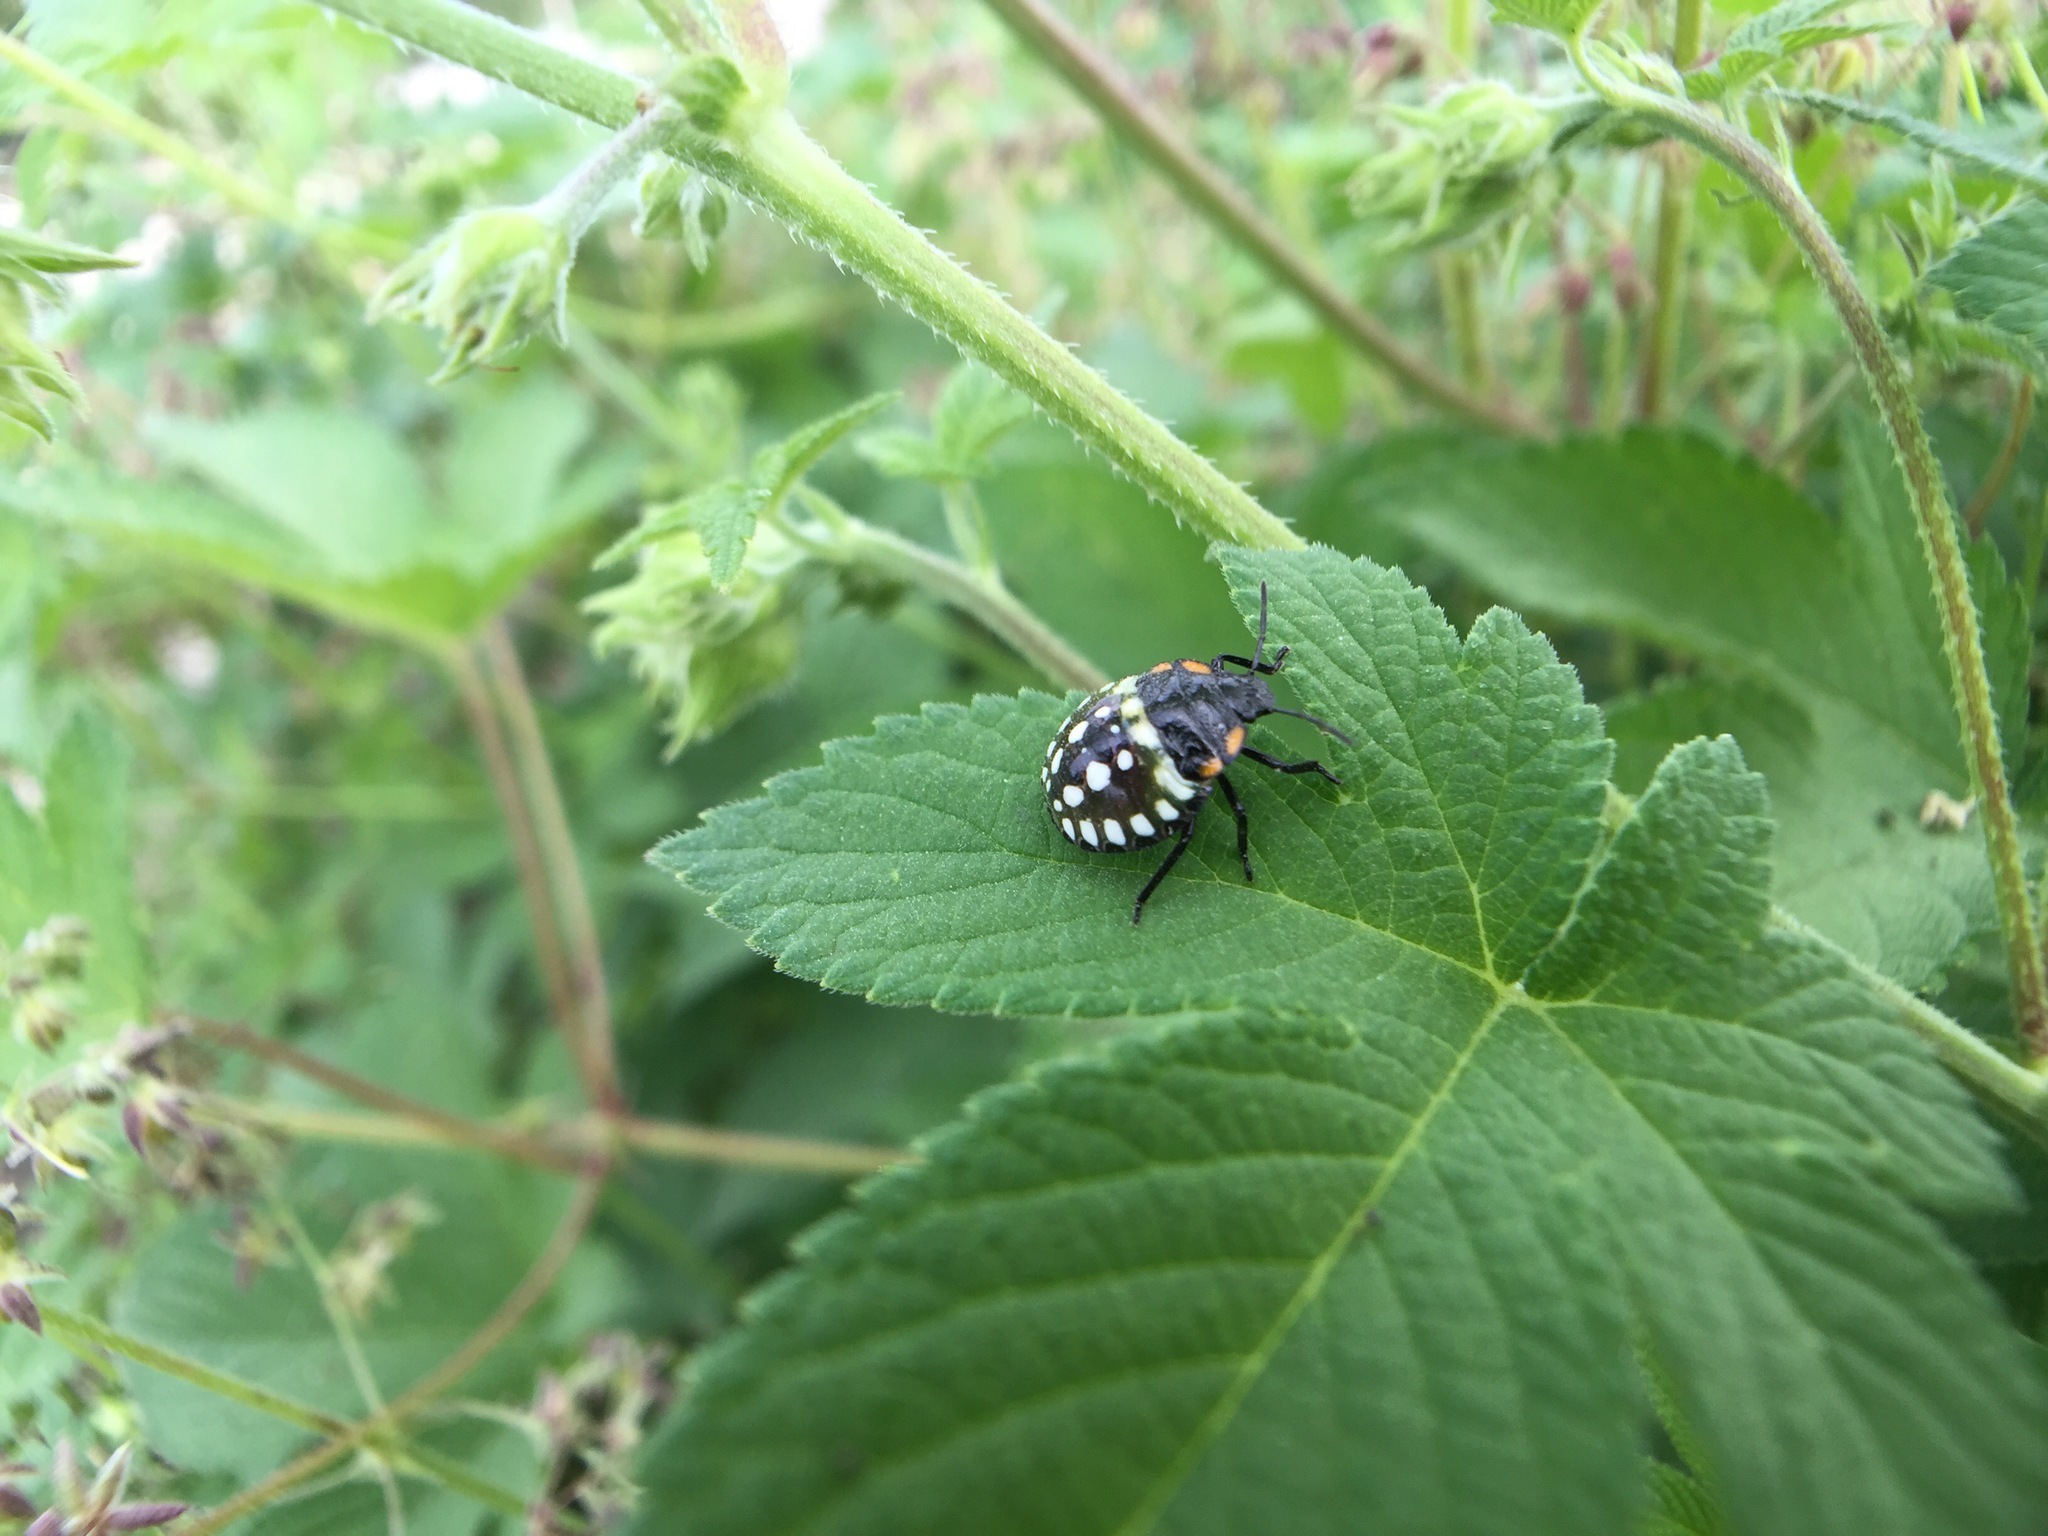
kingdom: Animalia
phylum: Arthropoda
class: Insecta
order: Hemiptera
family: Pentatomidae
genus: Nezara
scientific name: Nezara antennata
